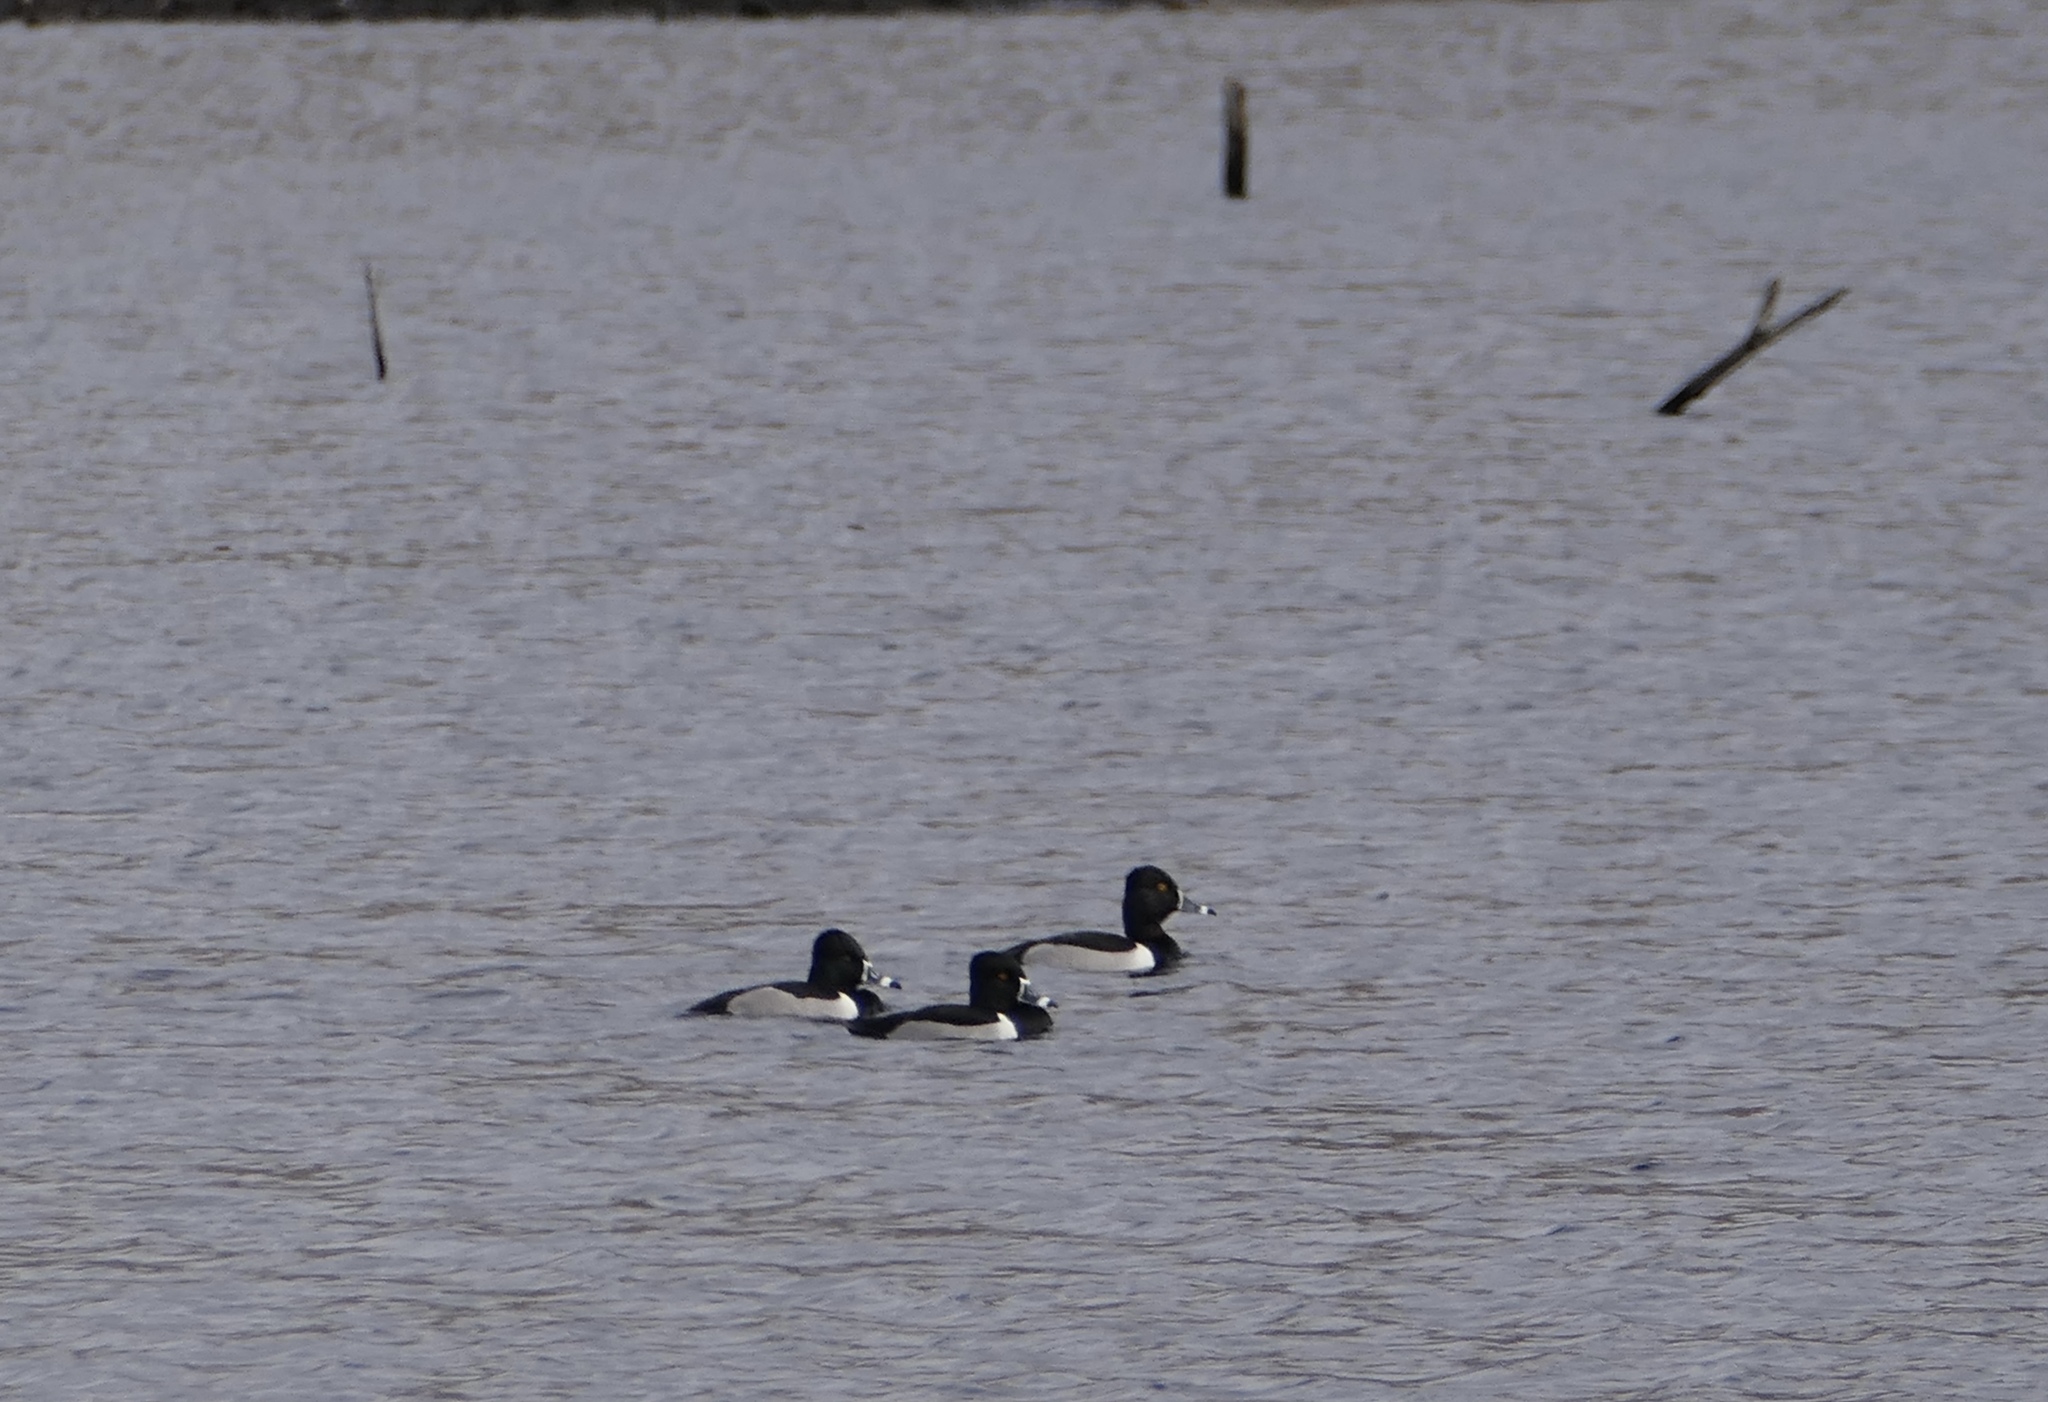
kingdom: Animalia
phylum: Chordata
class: Aves
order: Anseriformes
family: Anatidae
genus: Aythya
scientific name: Aythya collaris
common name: Ring-necked duck
